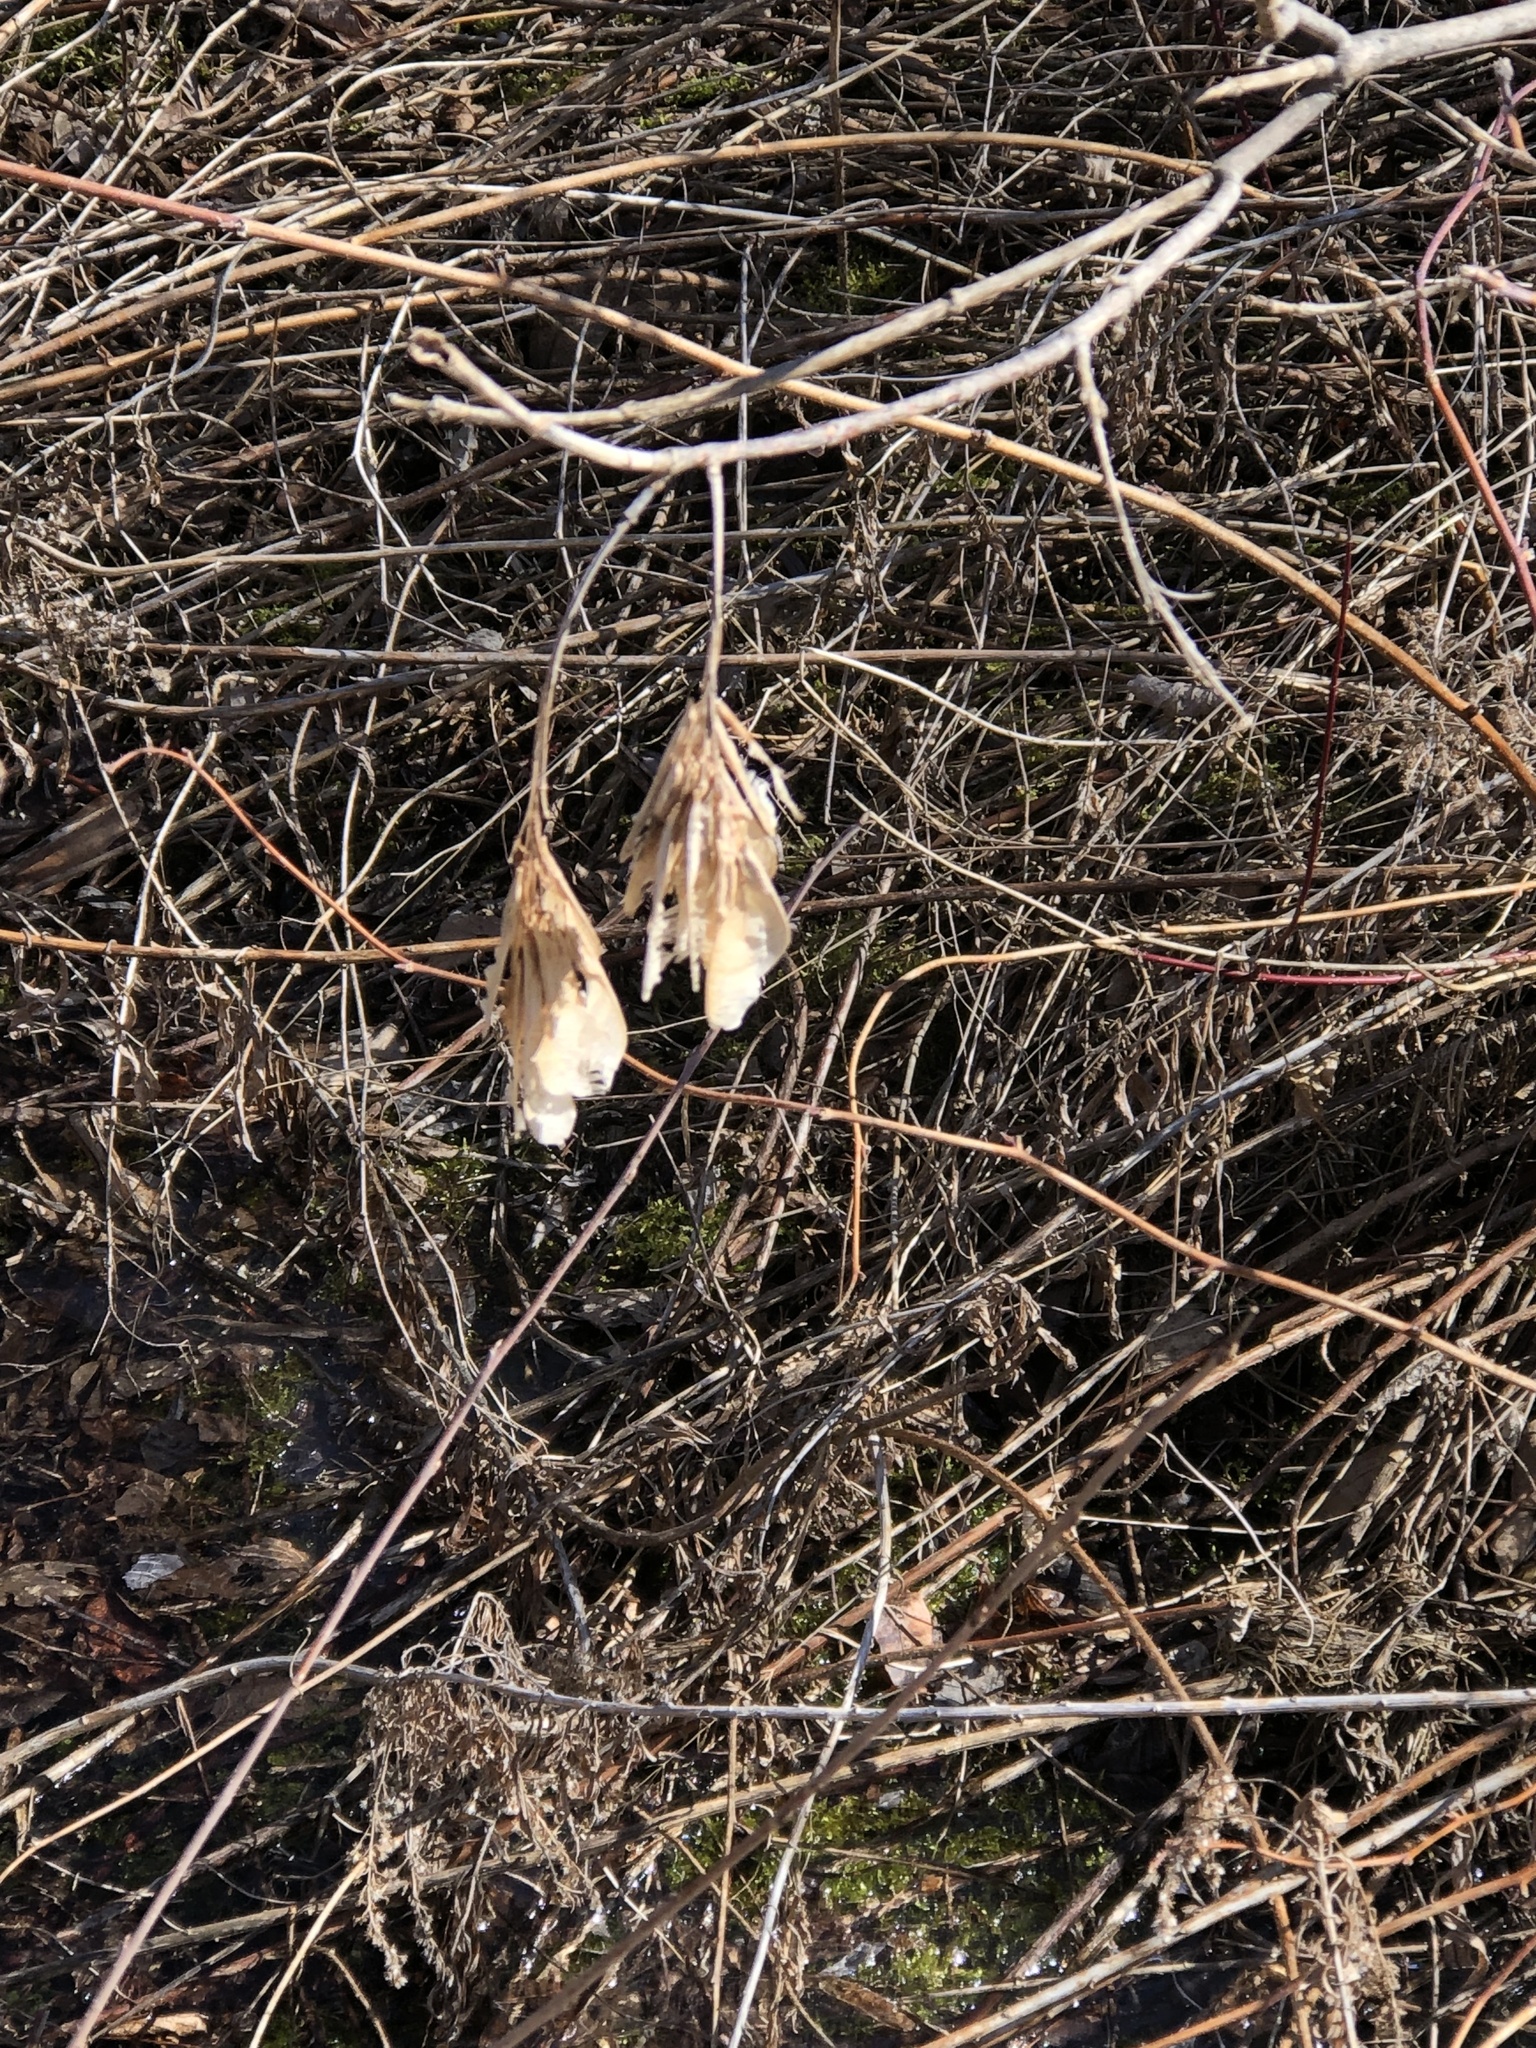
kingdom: Plantae
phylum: Tracheophyta
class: Magnoliopsida
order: Sapindales
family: Sapindaceae
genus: Acer
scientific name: Acer negundo
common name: Ashleaf maple
